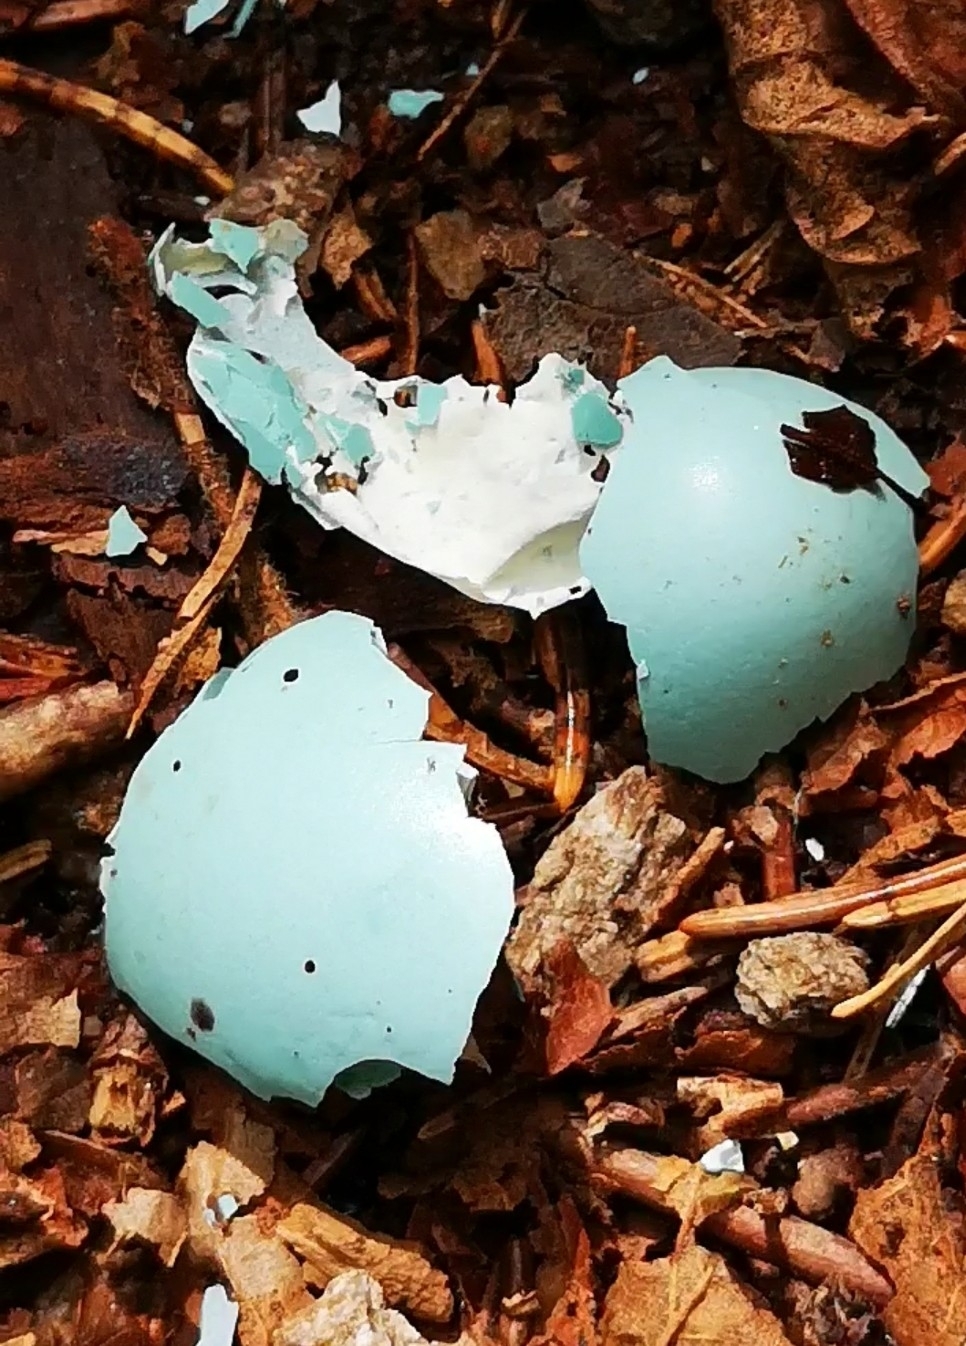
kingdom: Animalia
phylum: Chordata
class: Aves
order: Passeriformes
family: Turdidae
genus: Turdus
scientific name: Turdus philomelos
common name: Song thrush
